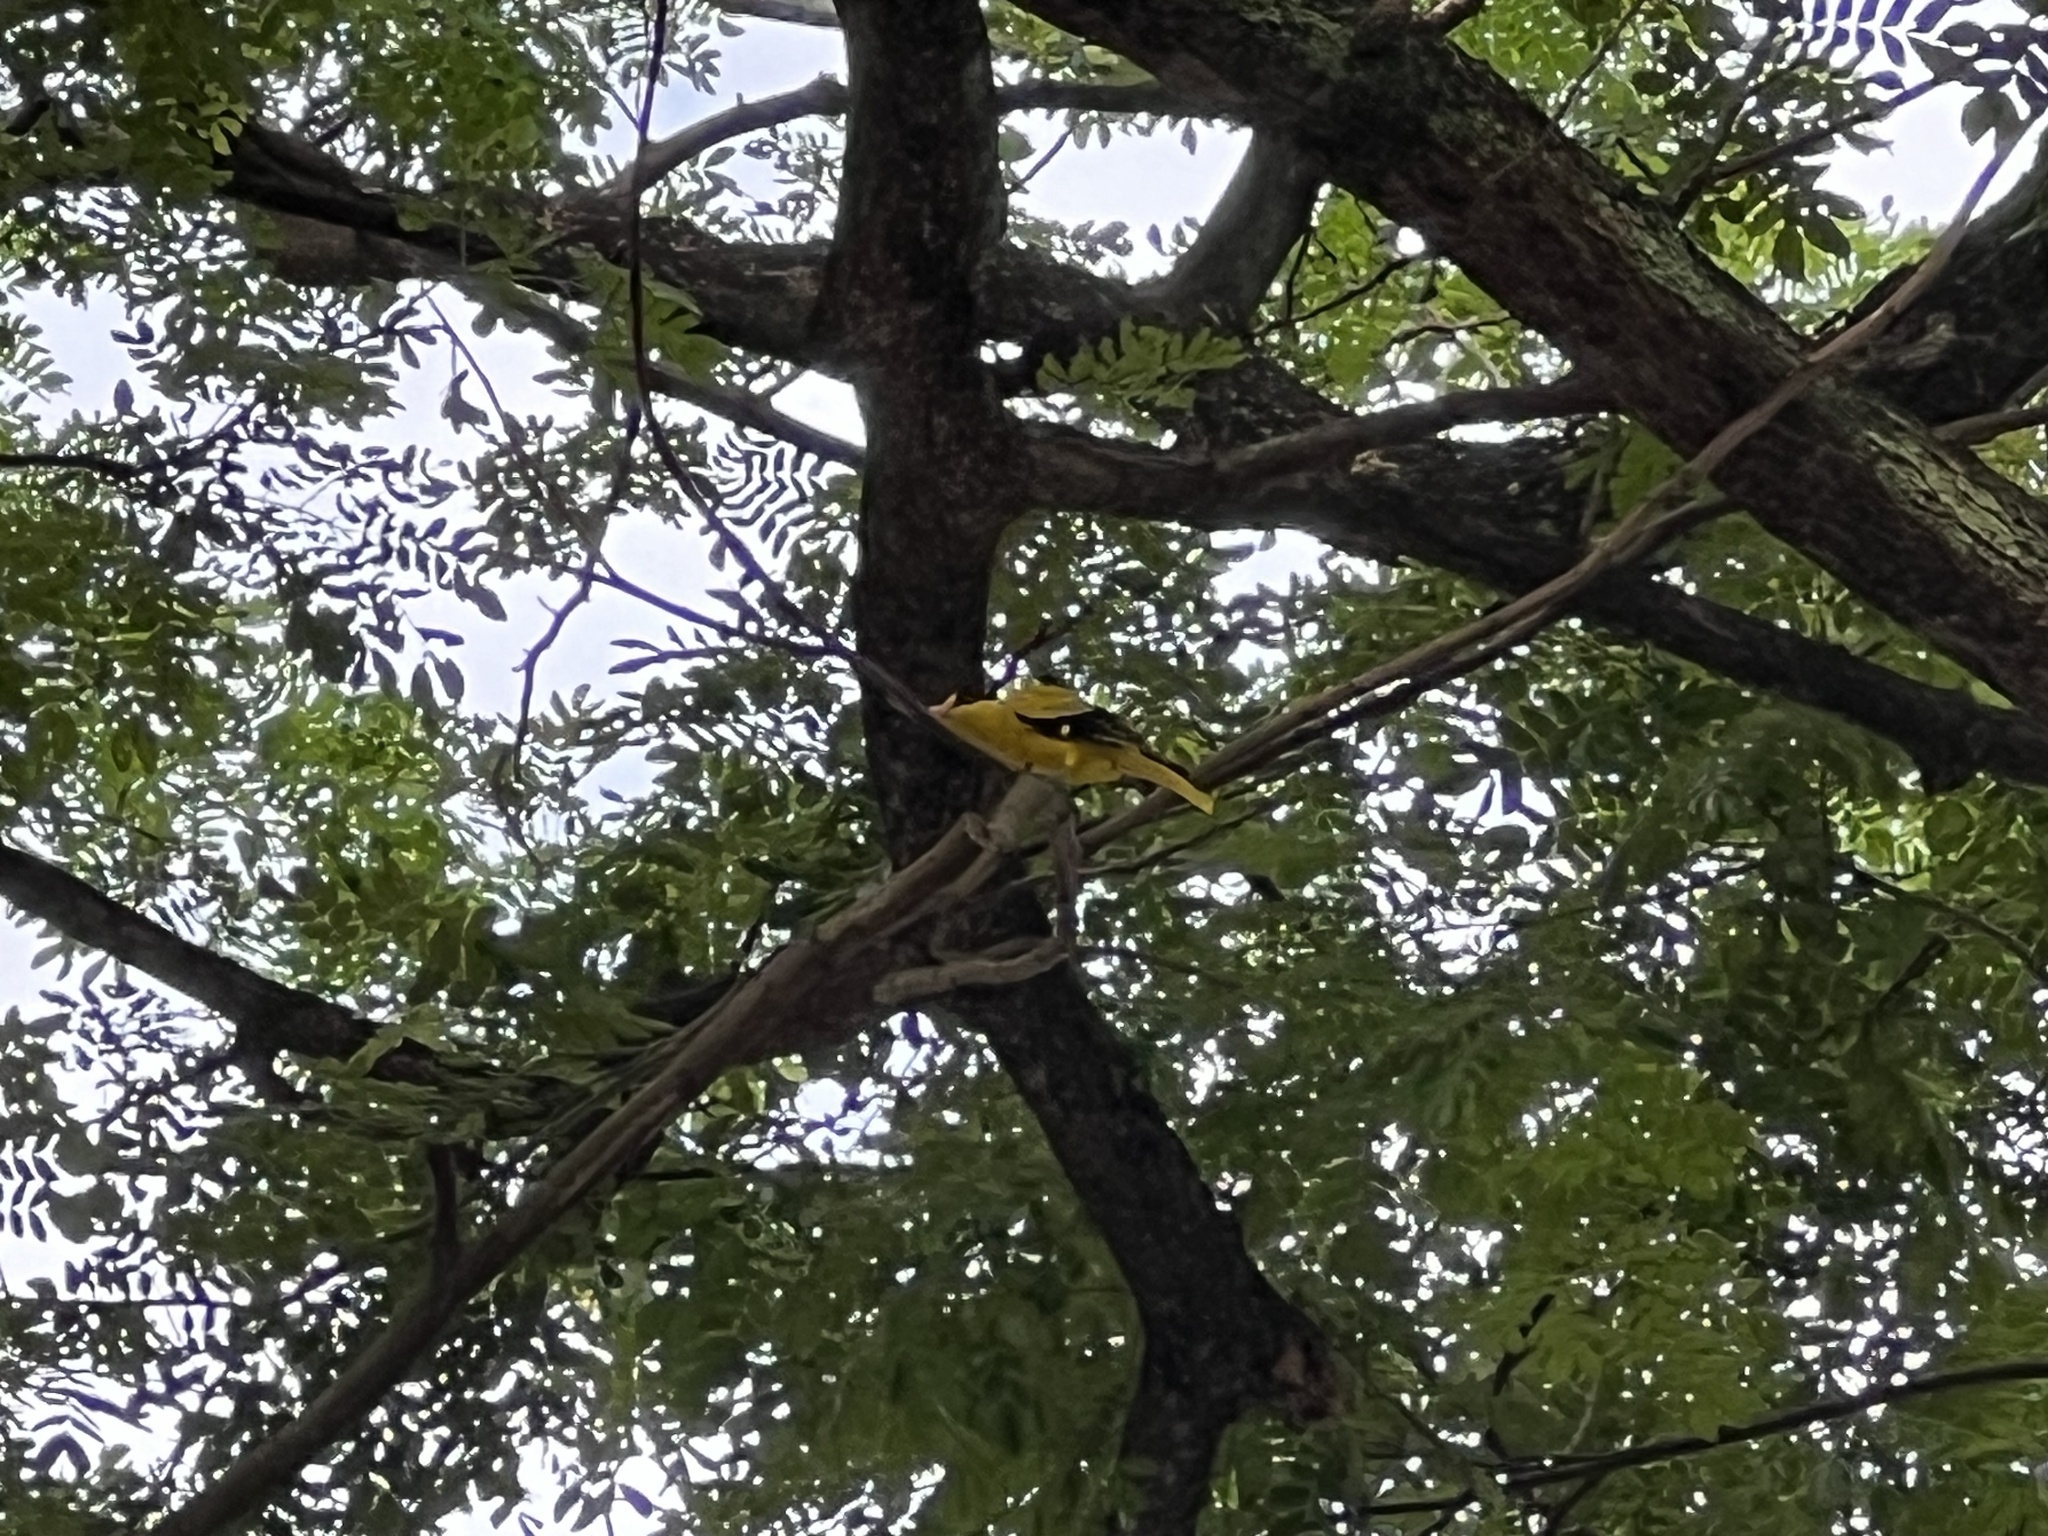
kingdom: Animalia
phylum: Chordata
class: Aves
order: Passeriformes
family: Oriolidae
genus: Oriolus
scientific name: Oriolus chinensis
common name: Black-naped oriole
